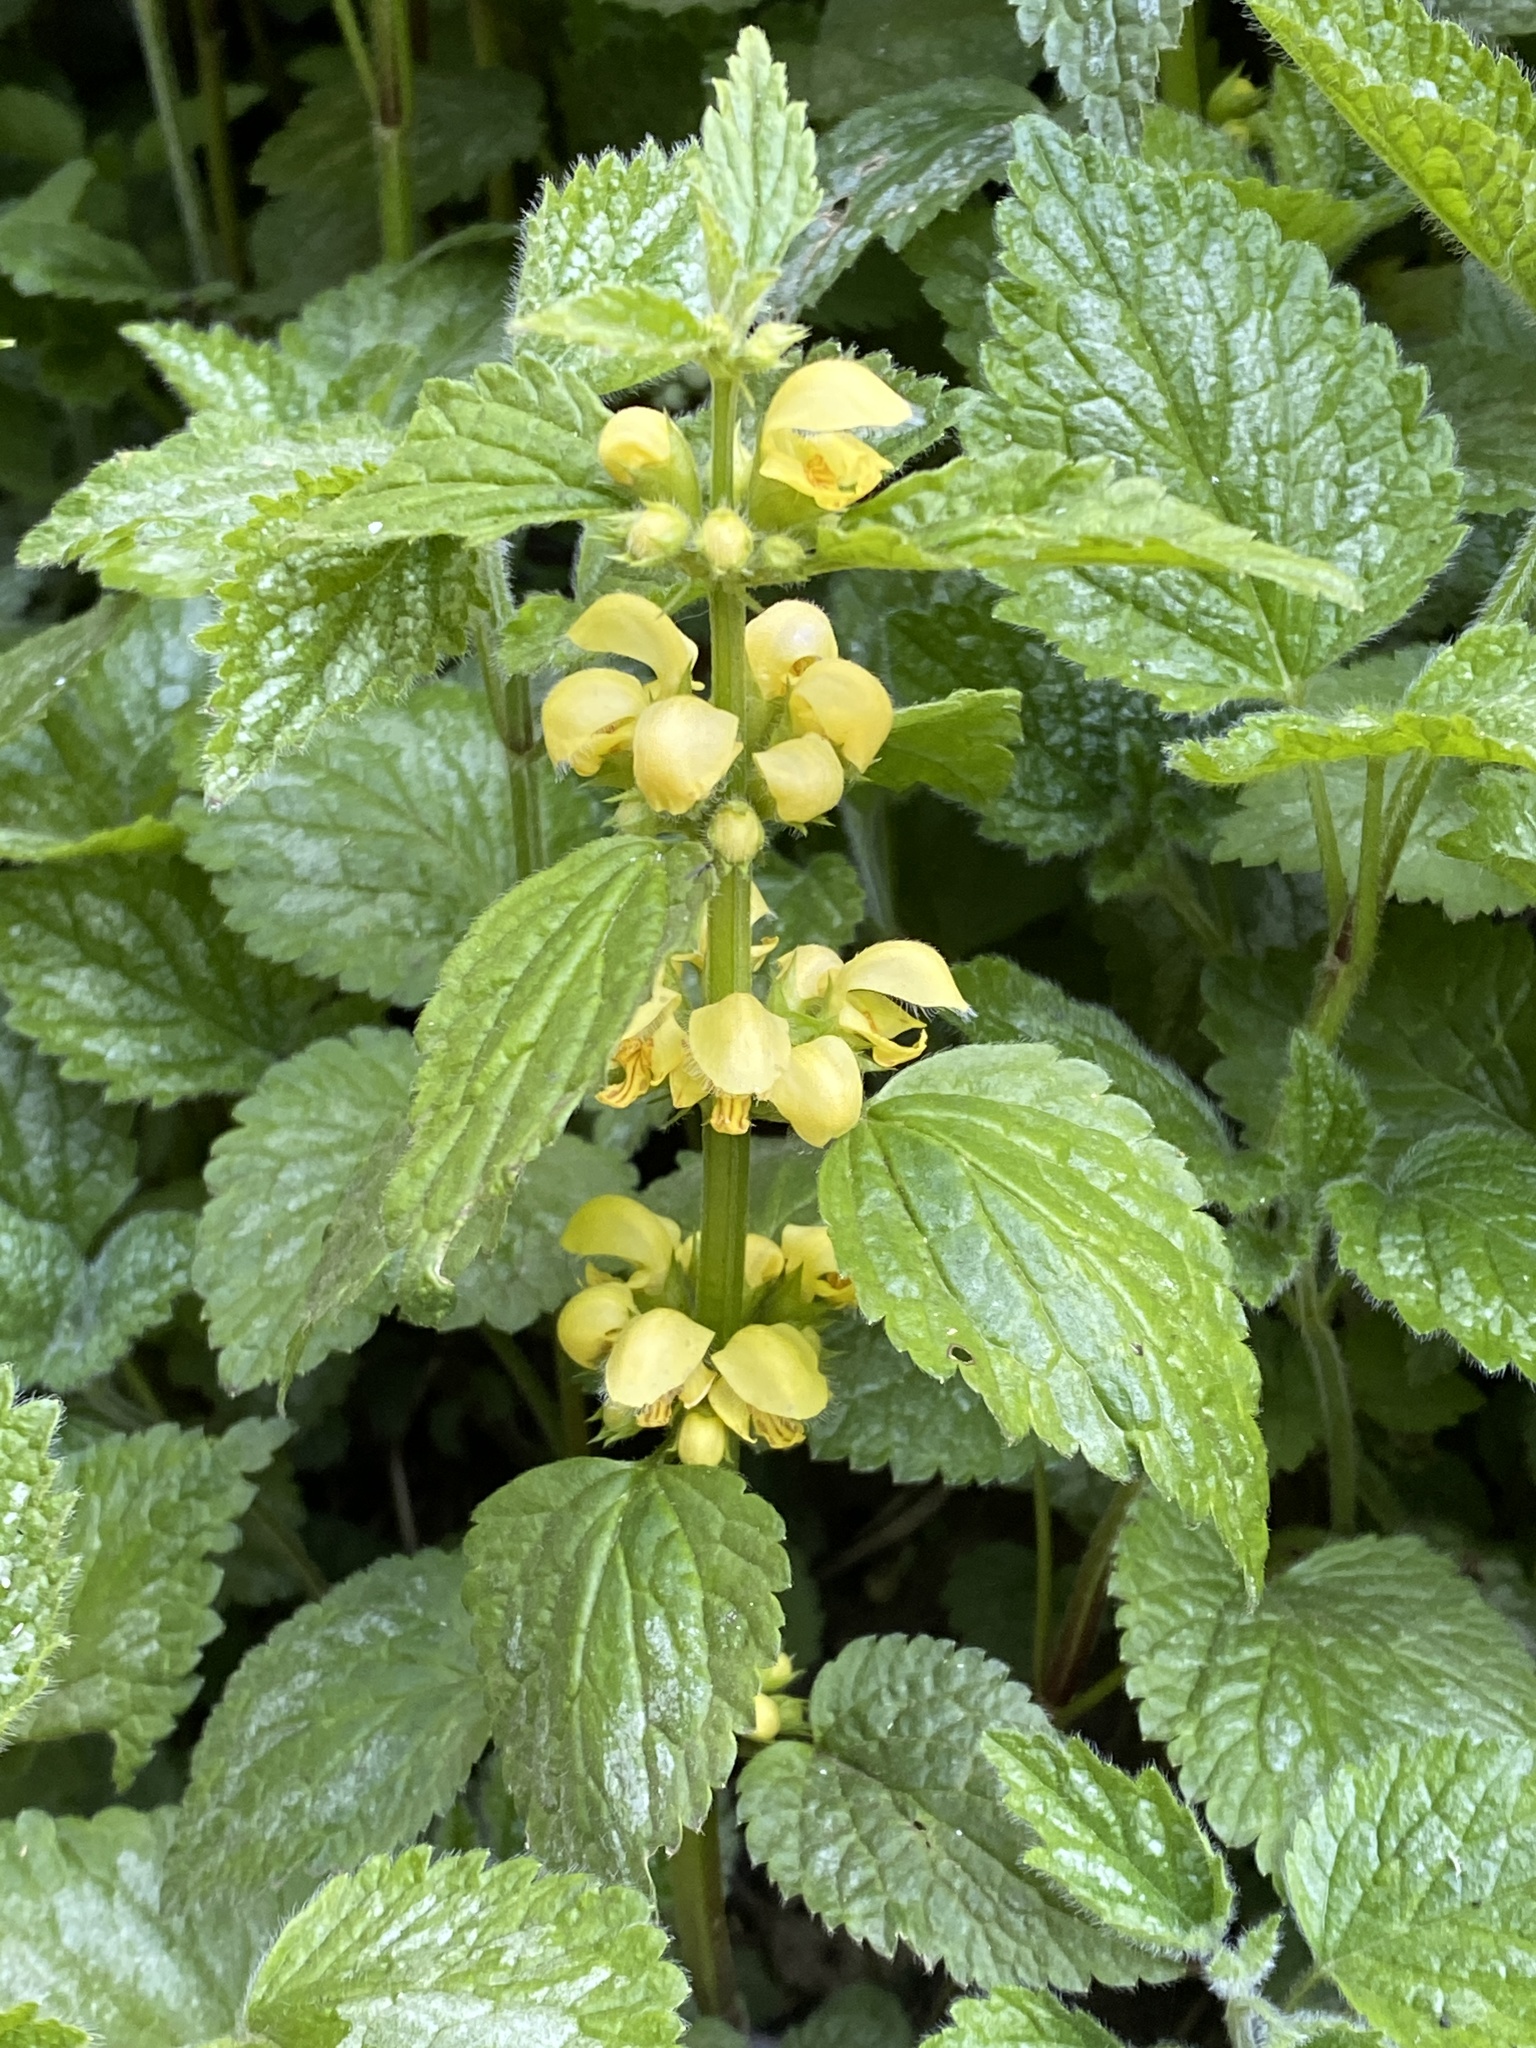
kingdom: Plantae
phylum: Tracheophyta
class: Magnoliopsida
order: Lamiales
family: Lamiaceae
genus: Lamium
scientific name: Lamium galeobdolon
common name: Yellow archangel
